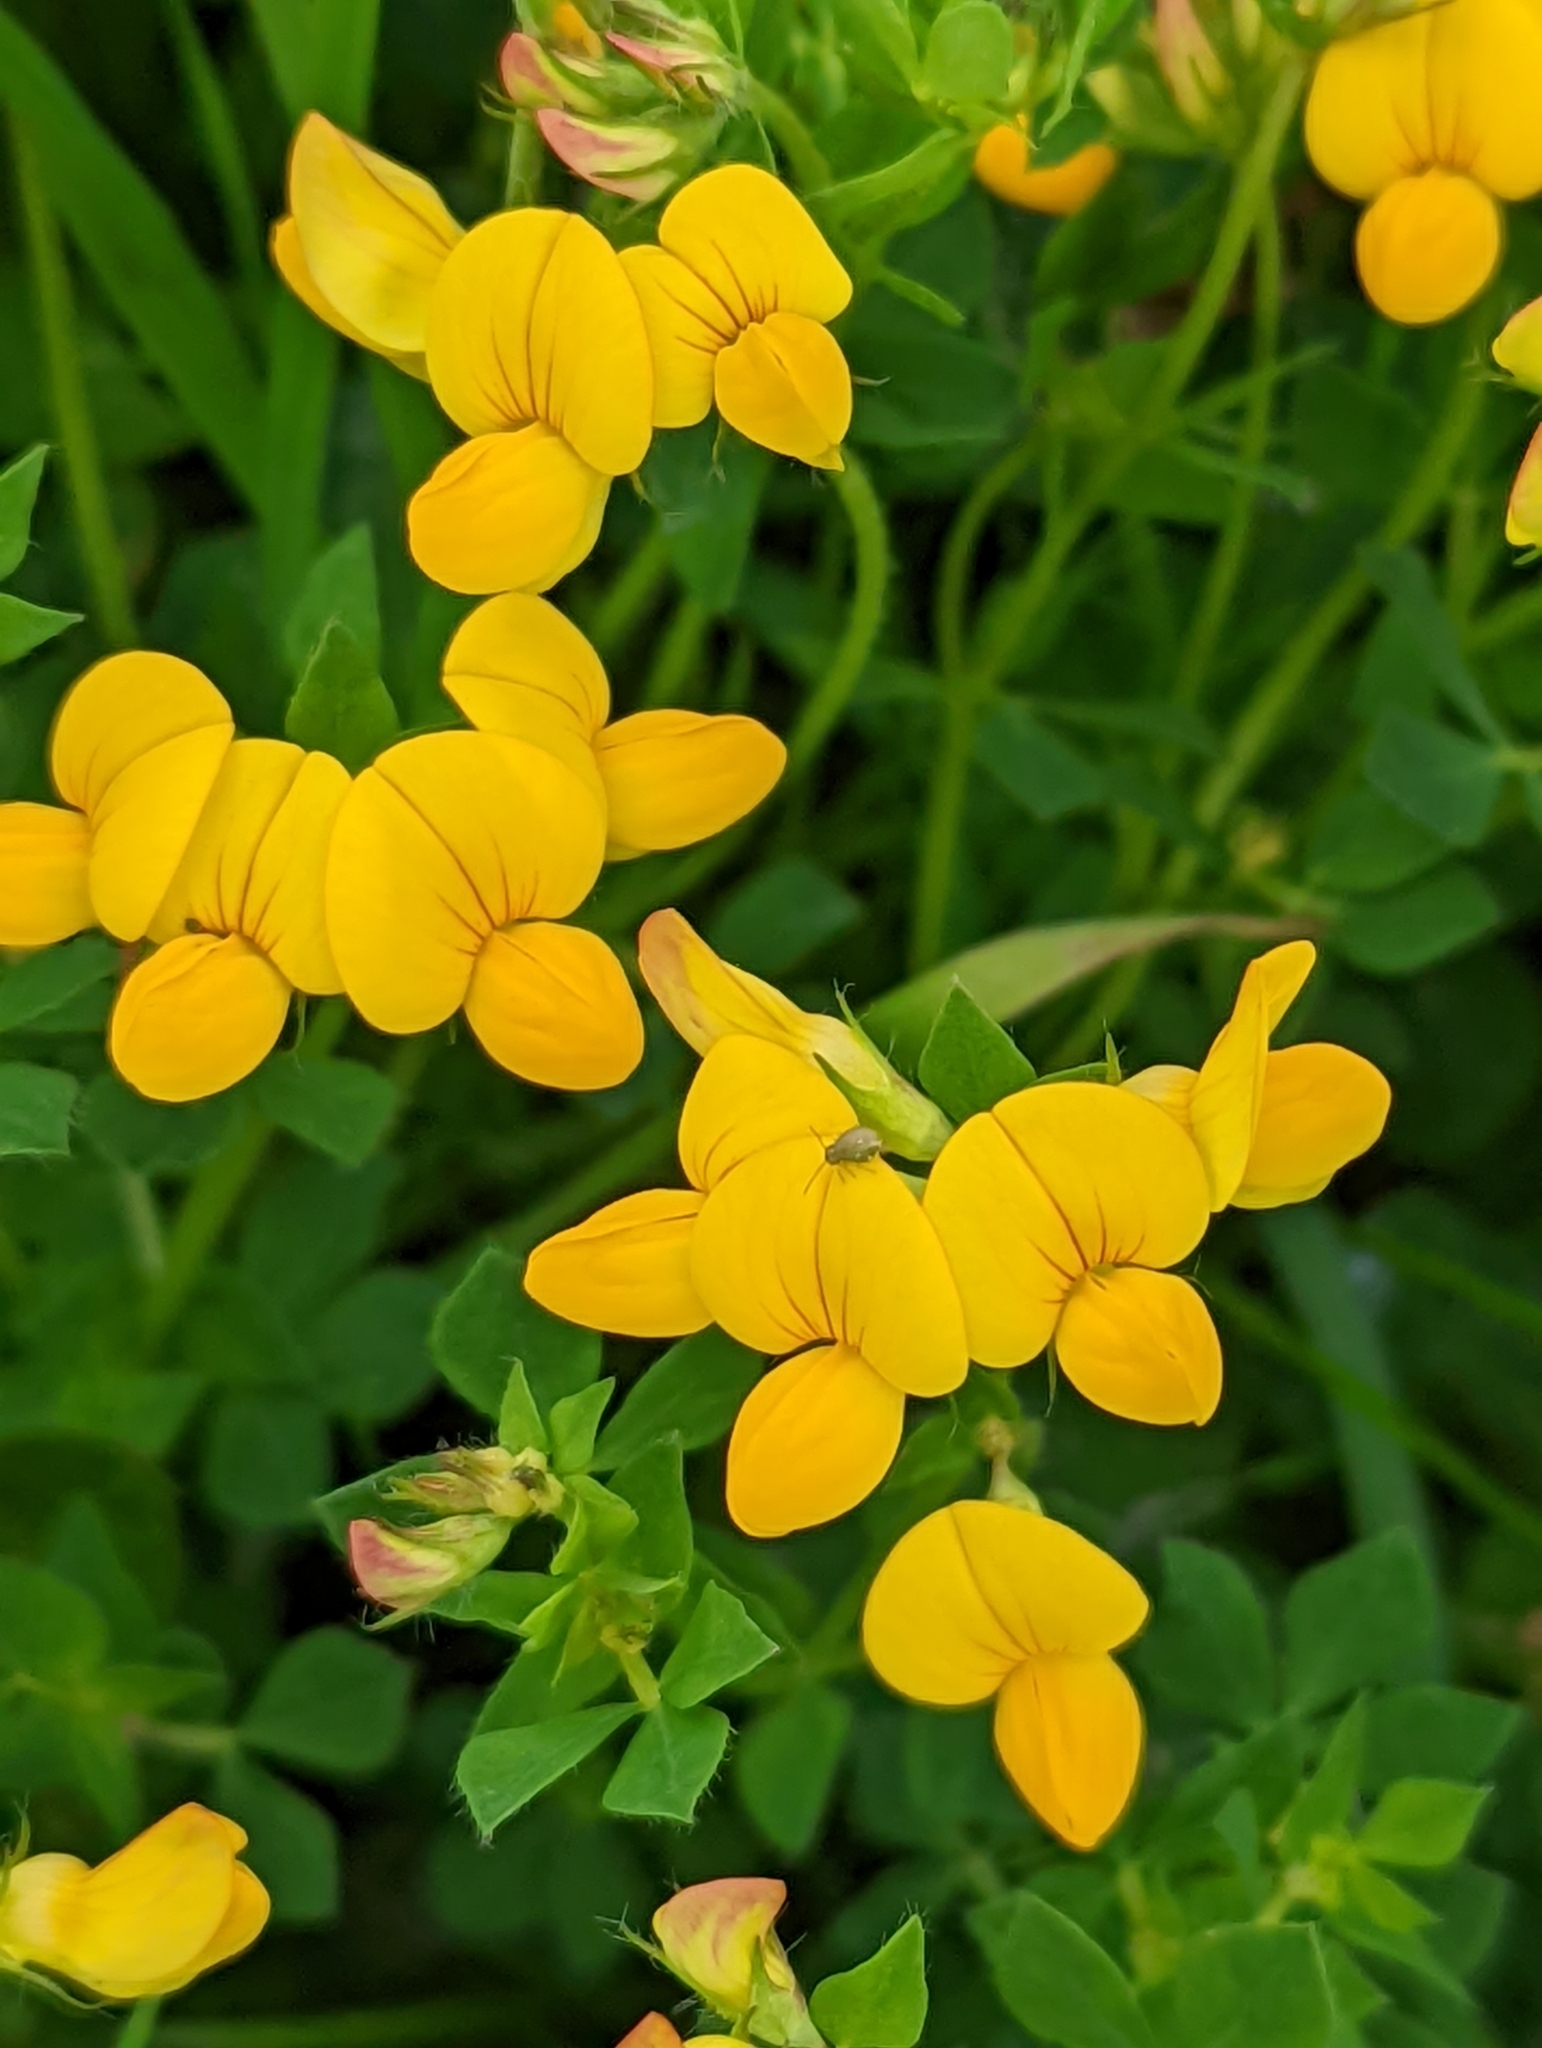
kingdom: Plantae
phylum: Tracheophyta
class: Magnoliopsida
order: Fabales
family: Fabaceae
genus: Lotus
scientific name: Lotus corniculatus
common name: Common bird's-foot-trefoil
